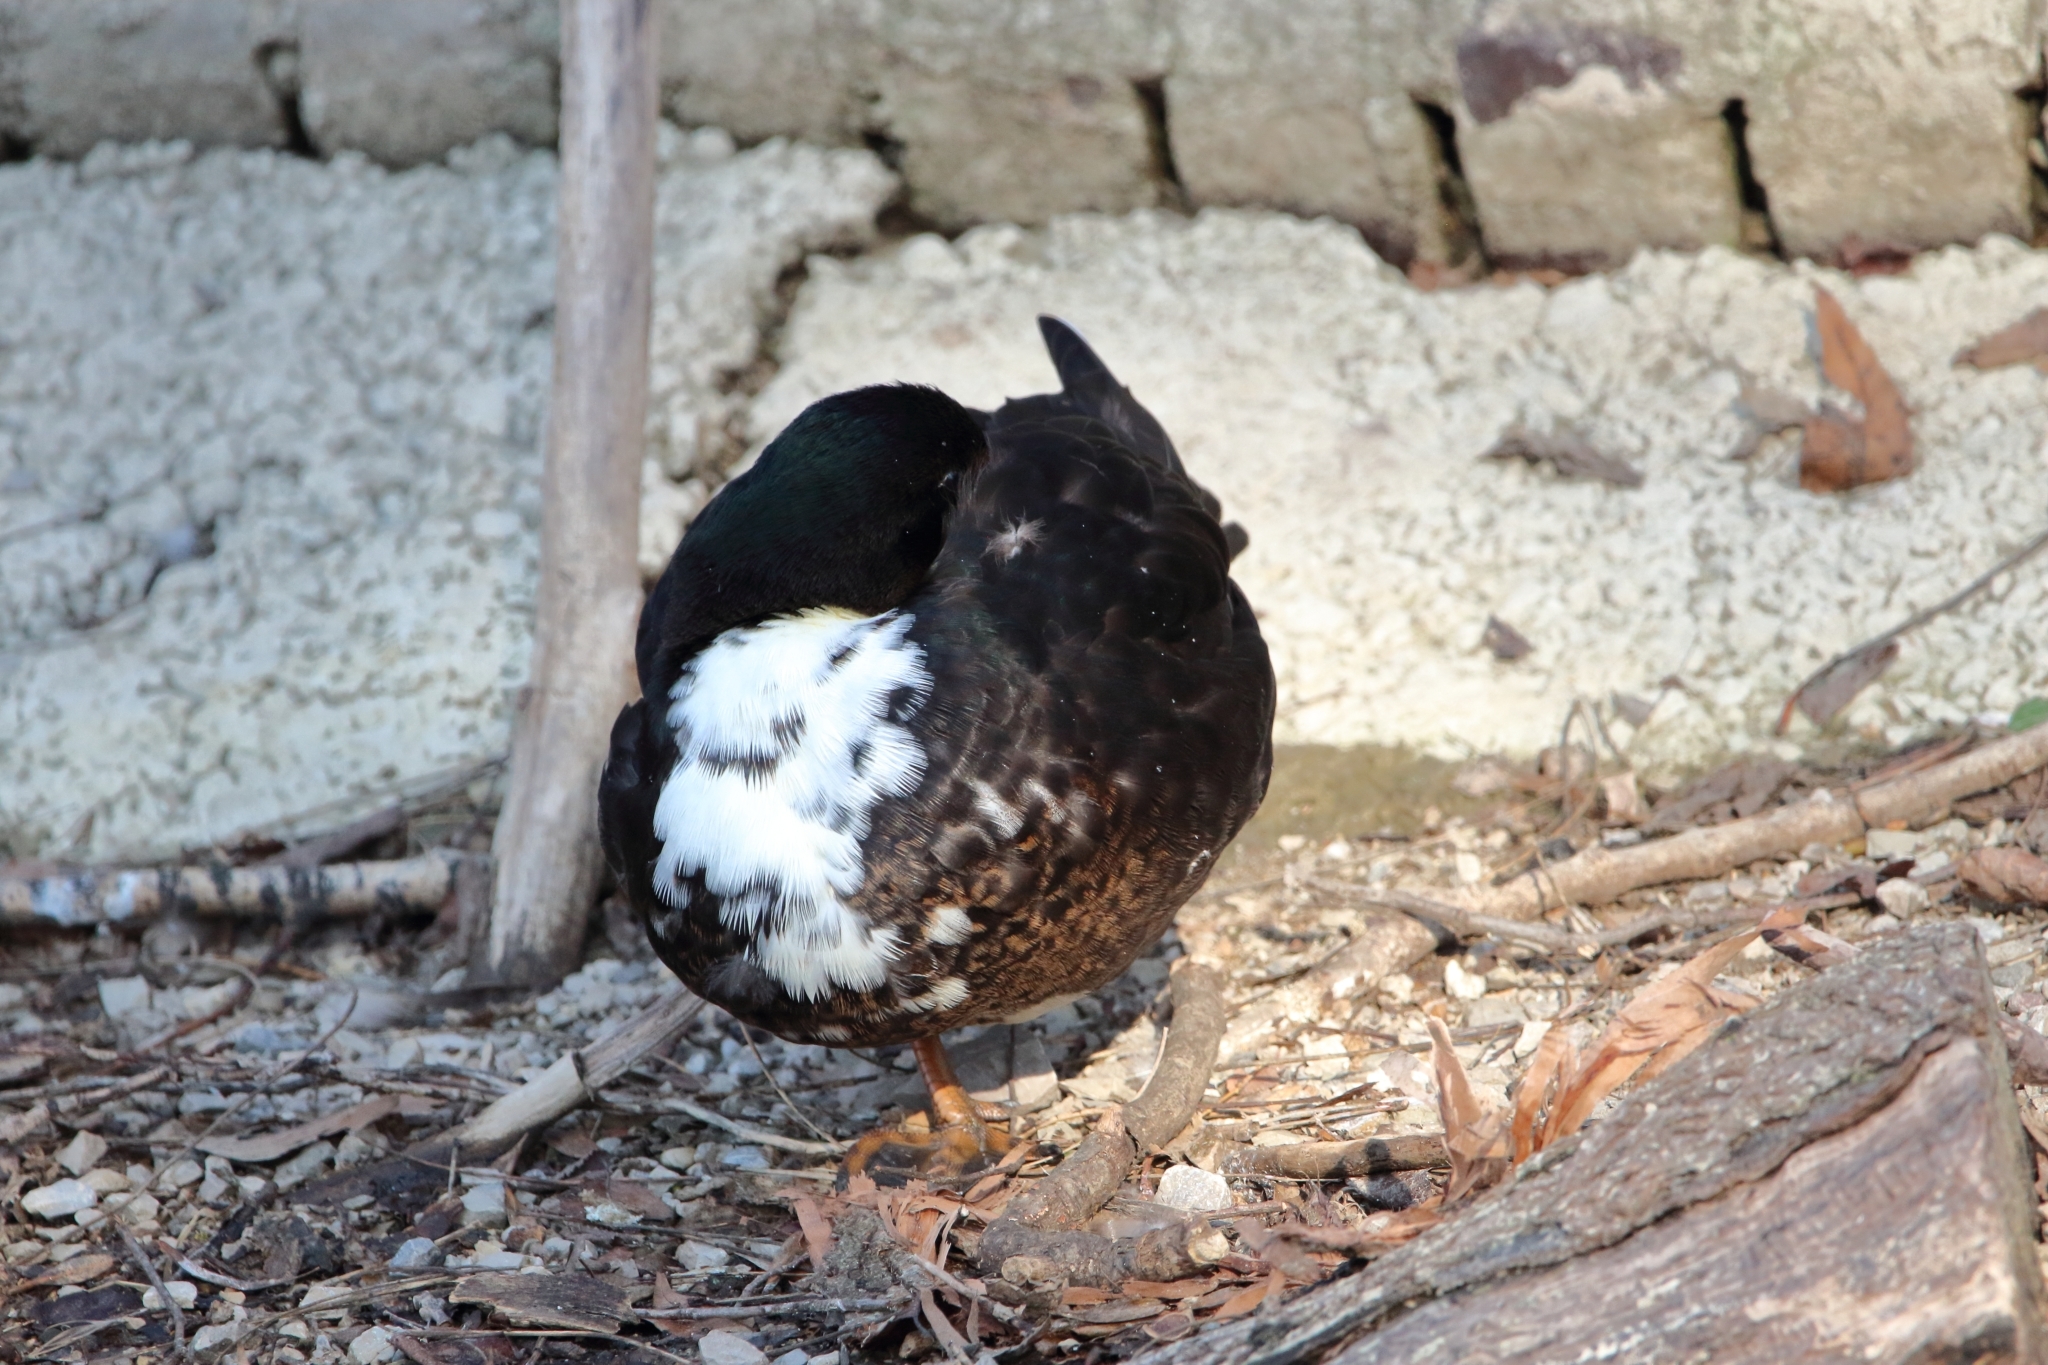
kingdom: Animalia
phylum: Chordata
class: Aves
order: Anseriformes
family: Anatidae
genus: Anas
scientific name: Anas platyrhynchos
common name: Mallard
